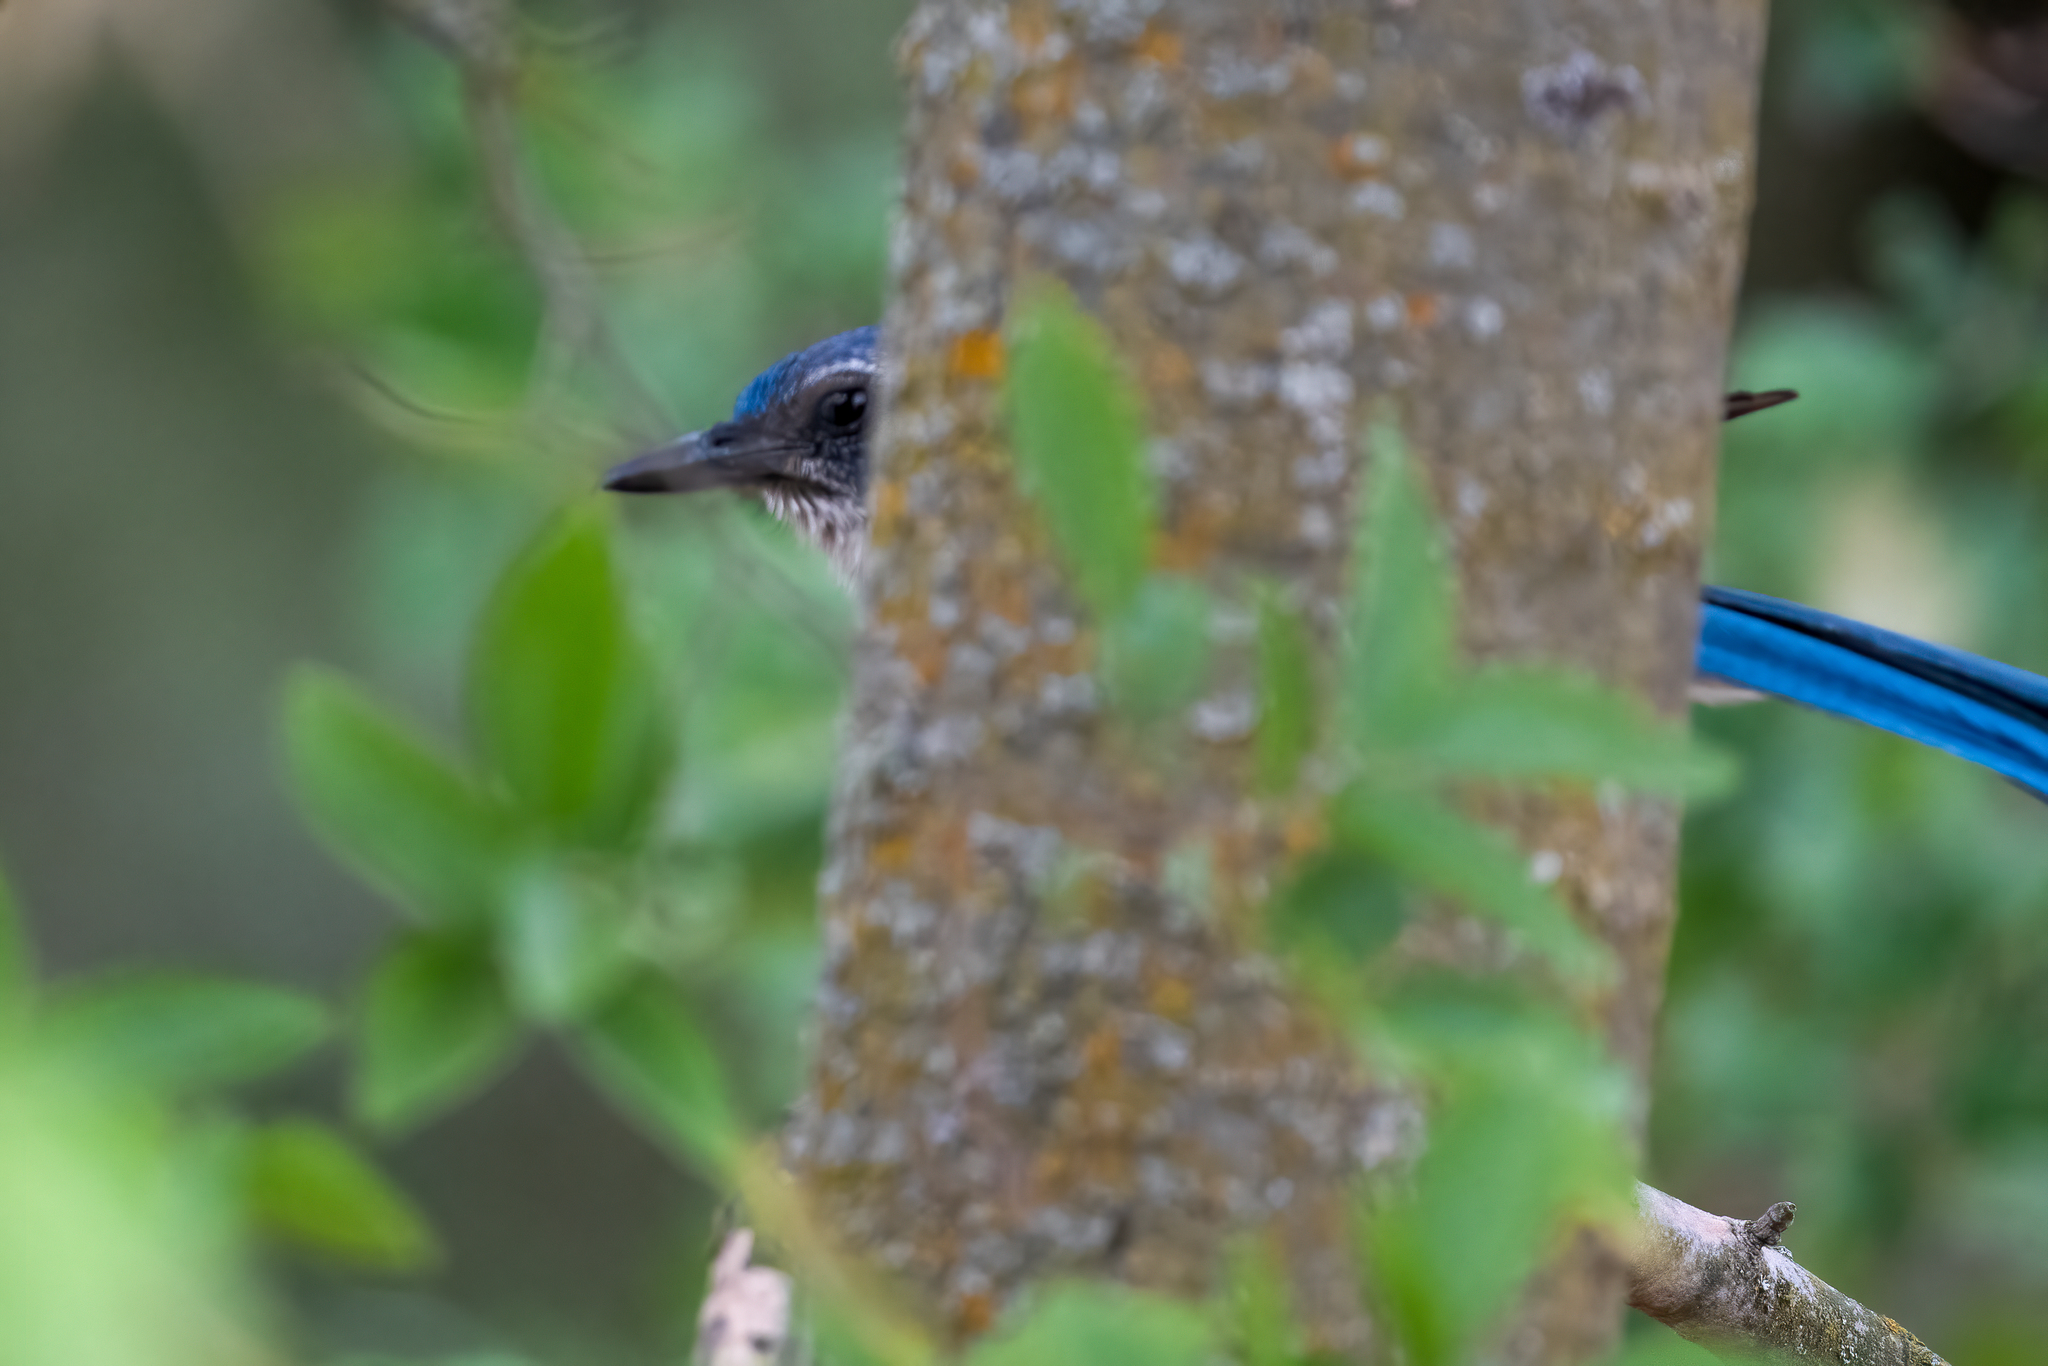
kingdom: Animalia
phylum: Chordata
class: Aves
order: Passeriformes
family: Corvidae
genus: Aphelocoma
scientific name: Aphelocoma californica
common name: California scrub-jay
